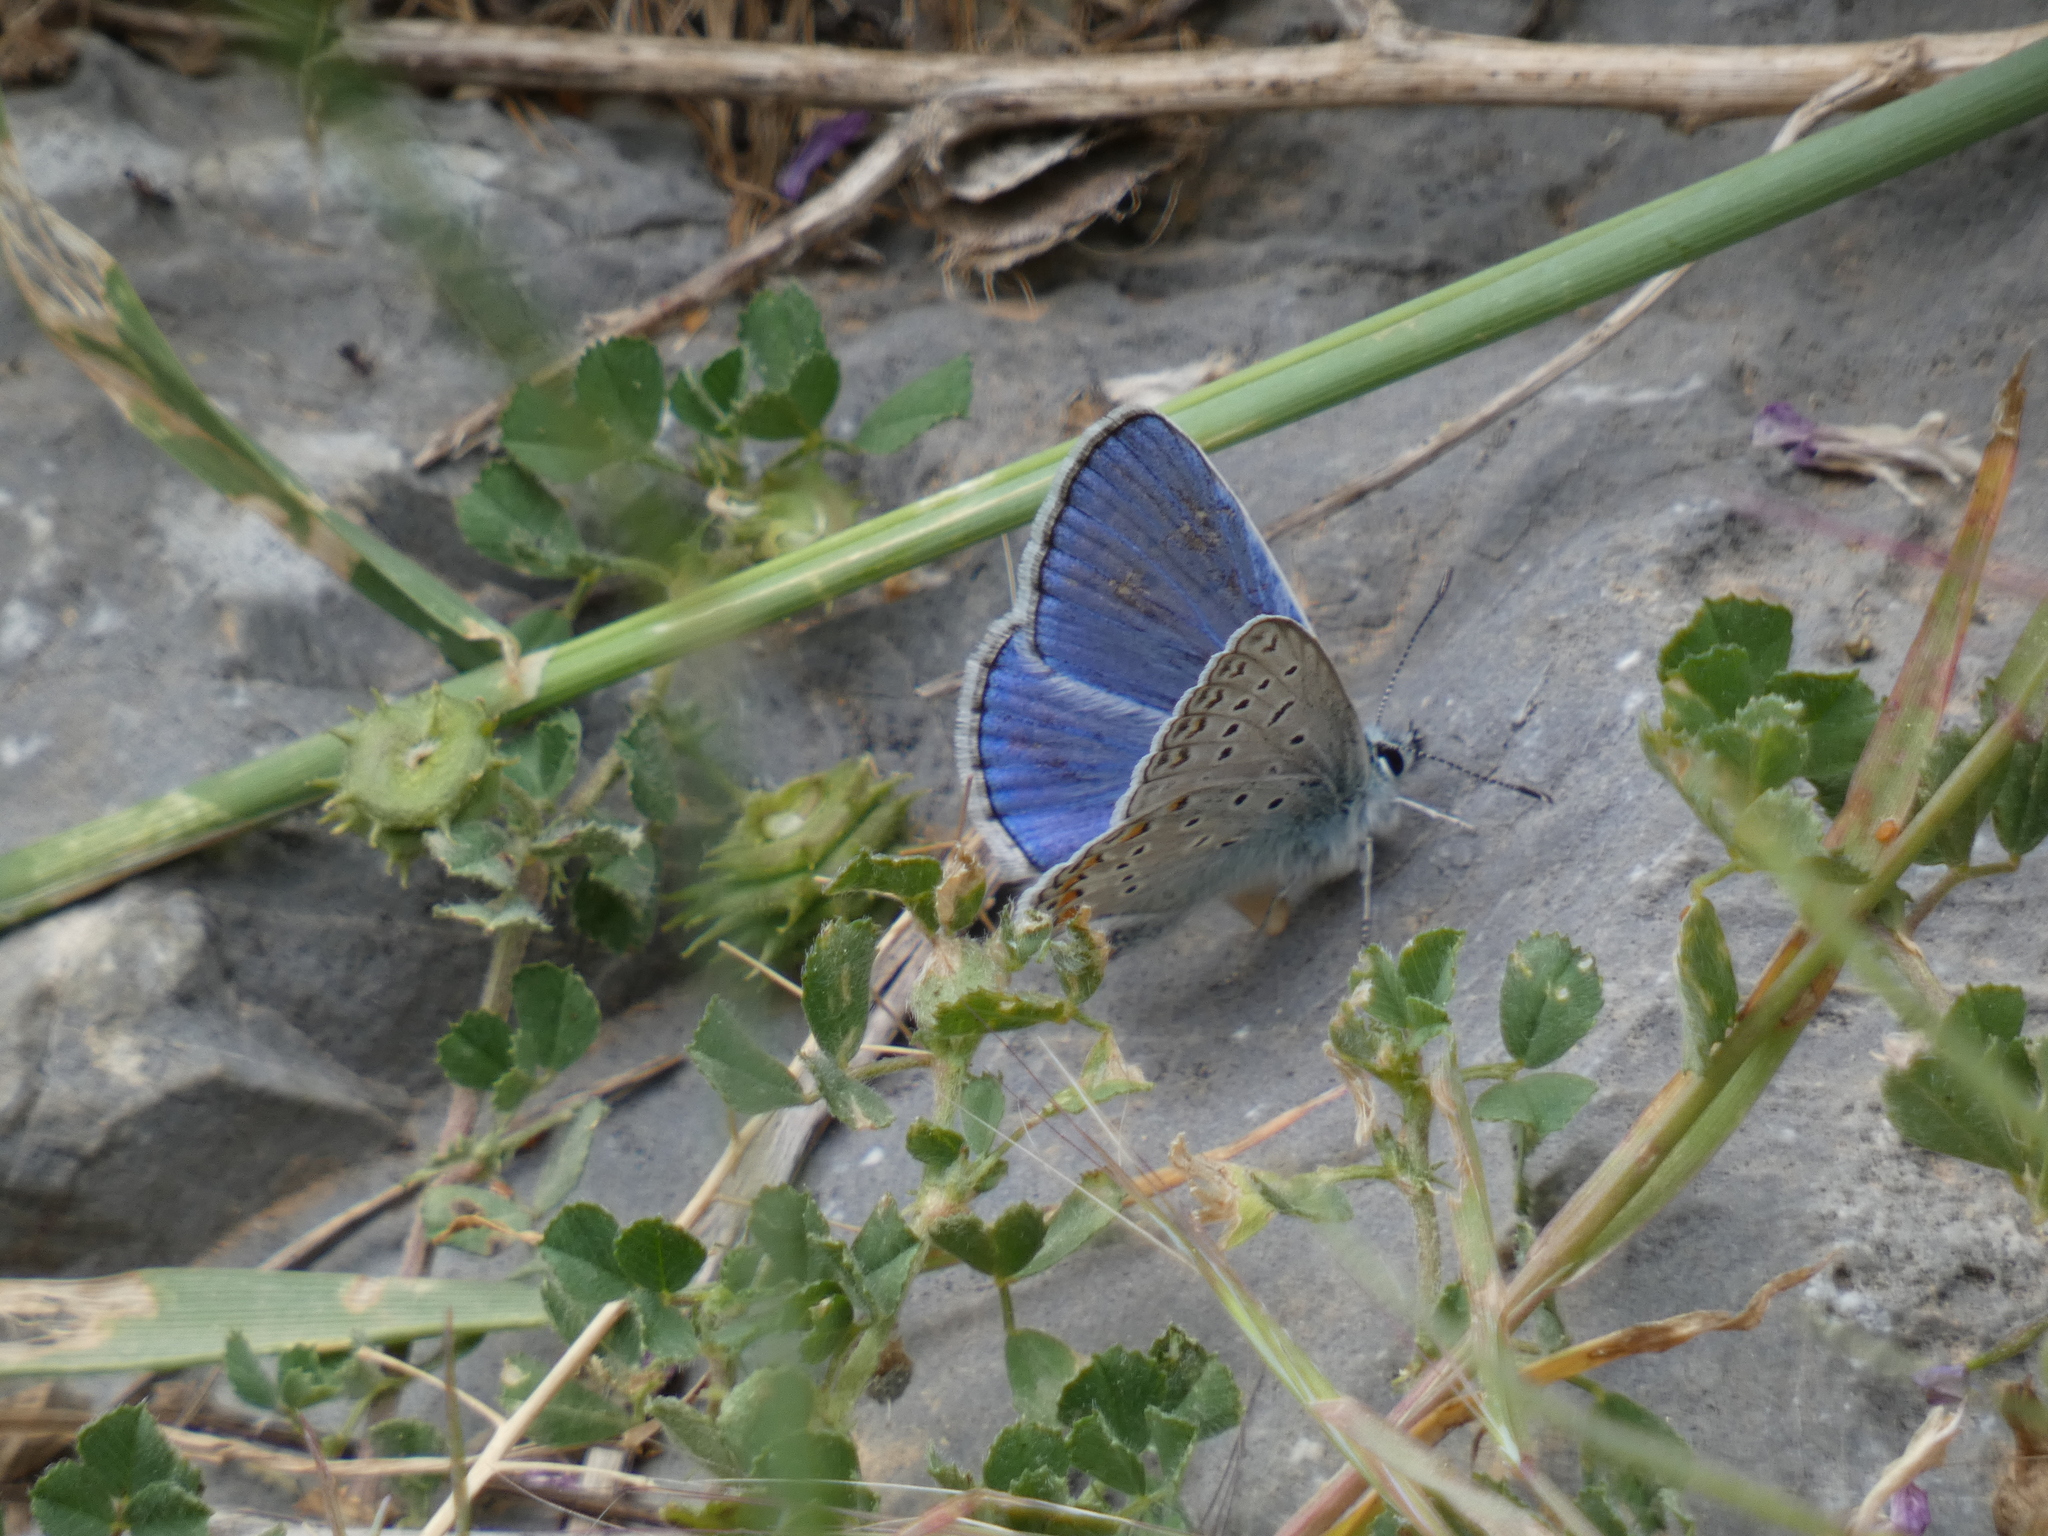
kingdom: Animalia
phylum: Arthropoda
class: Insecta
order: Lepidoptera
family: Lycaenidae
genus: Polyommatus
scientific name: Polyommatus icarus
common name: Common blue
